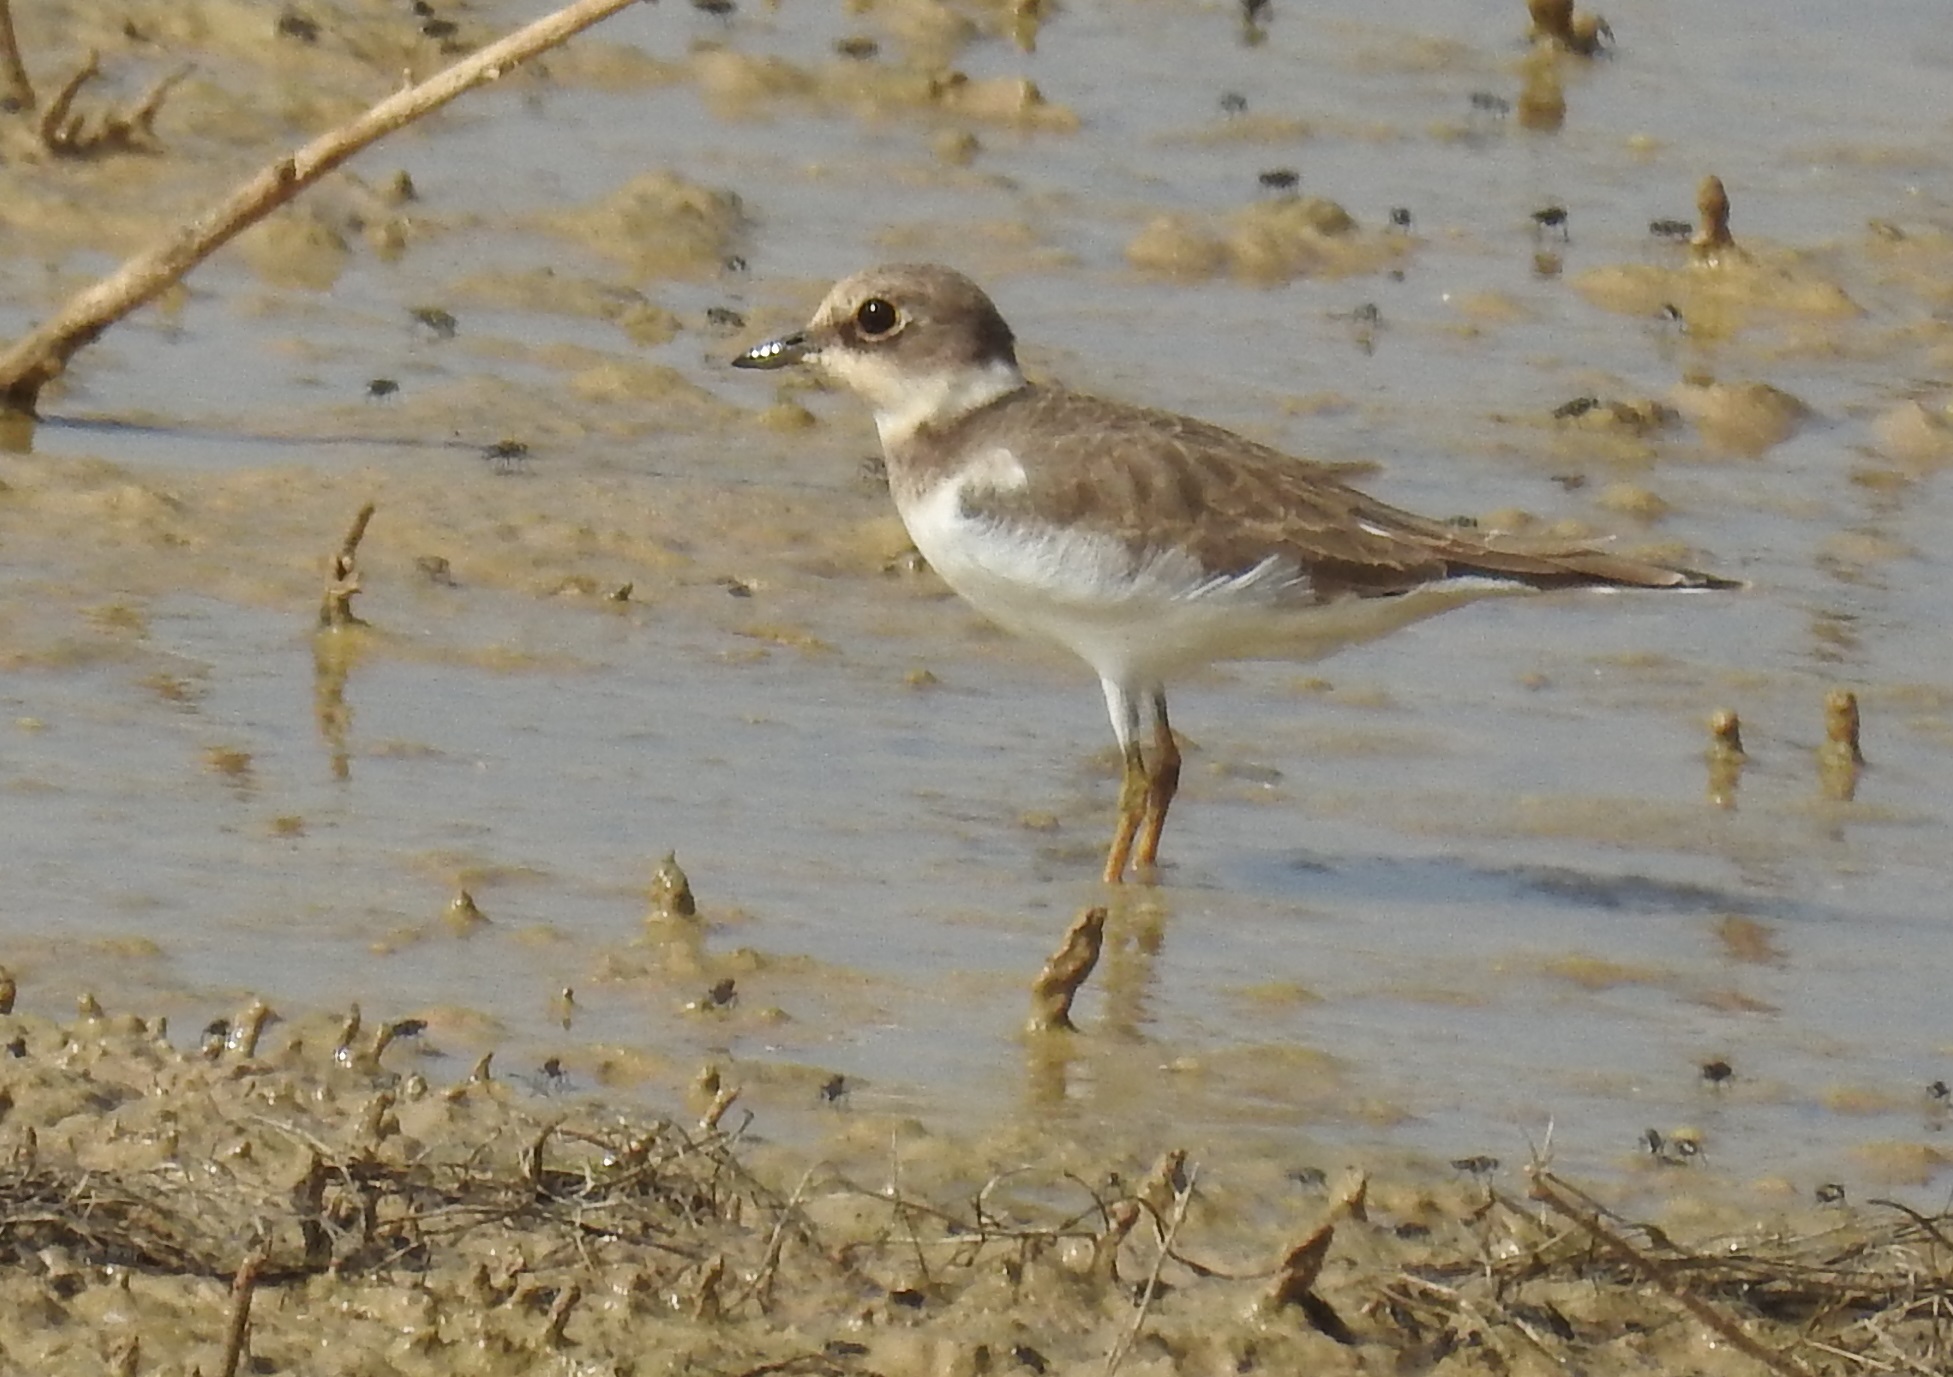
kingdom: Animalia
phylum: Chordata
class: Aves
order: Charadriiformes
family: Charadriidae
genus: Charadrius
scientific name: Charadrius dubius
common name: Little ringed plover
